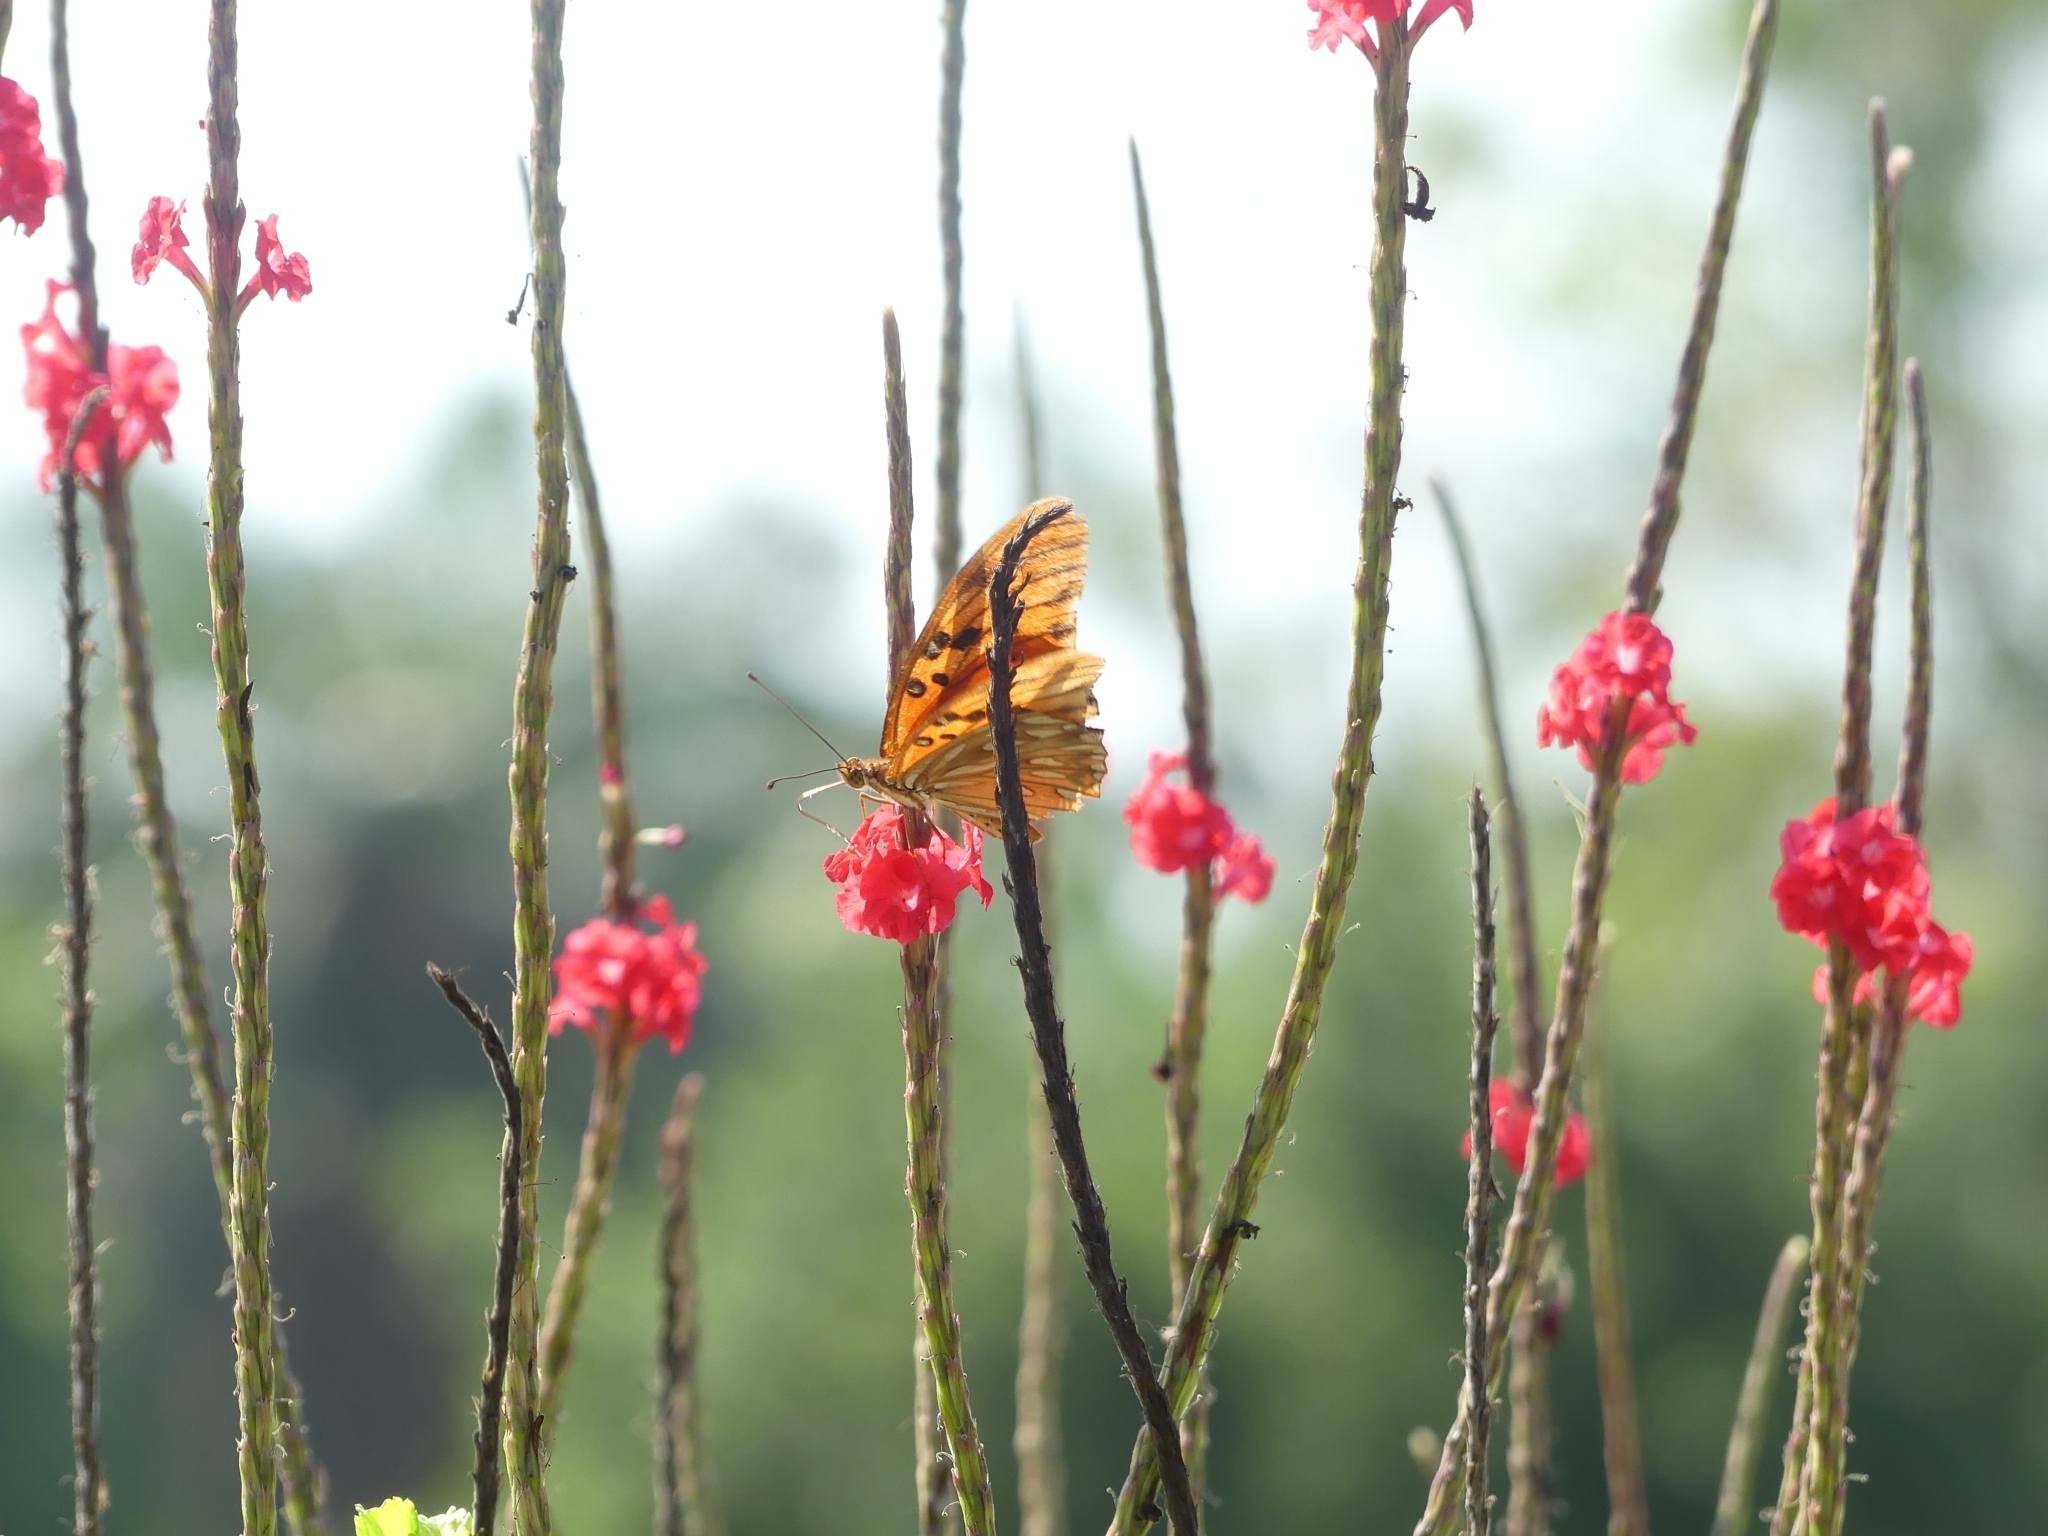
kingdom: Animalia
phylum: Arthropoda
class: Insecta
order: Lepidoptera
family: Nymphalidae
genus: Dione
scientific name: Dione vanillae
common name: Gulf fritillary
